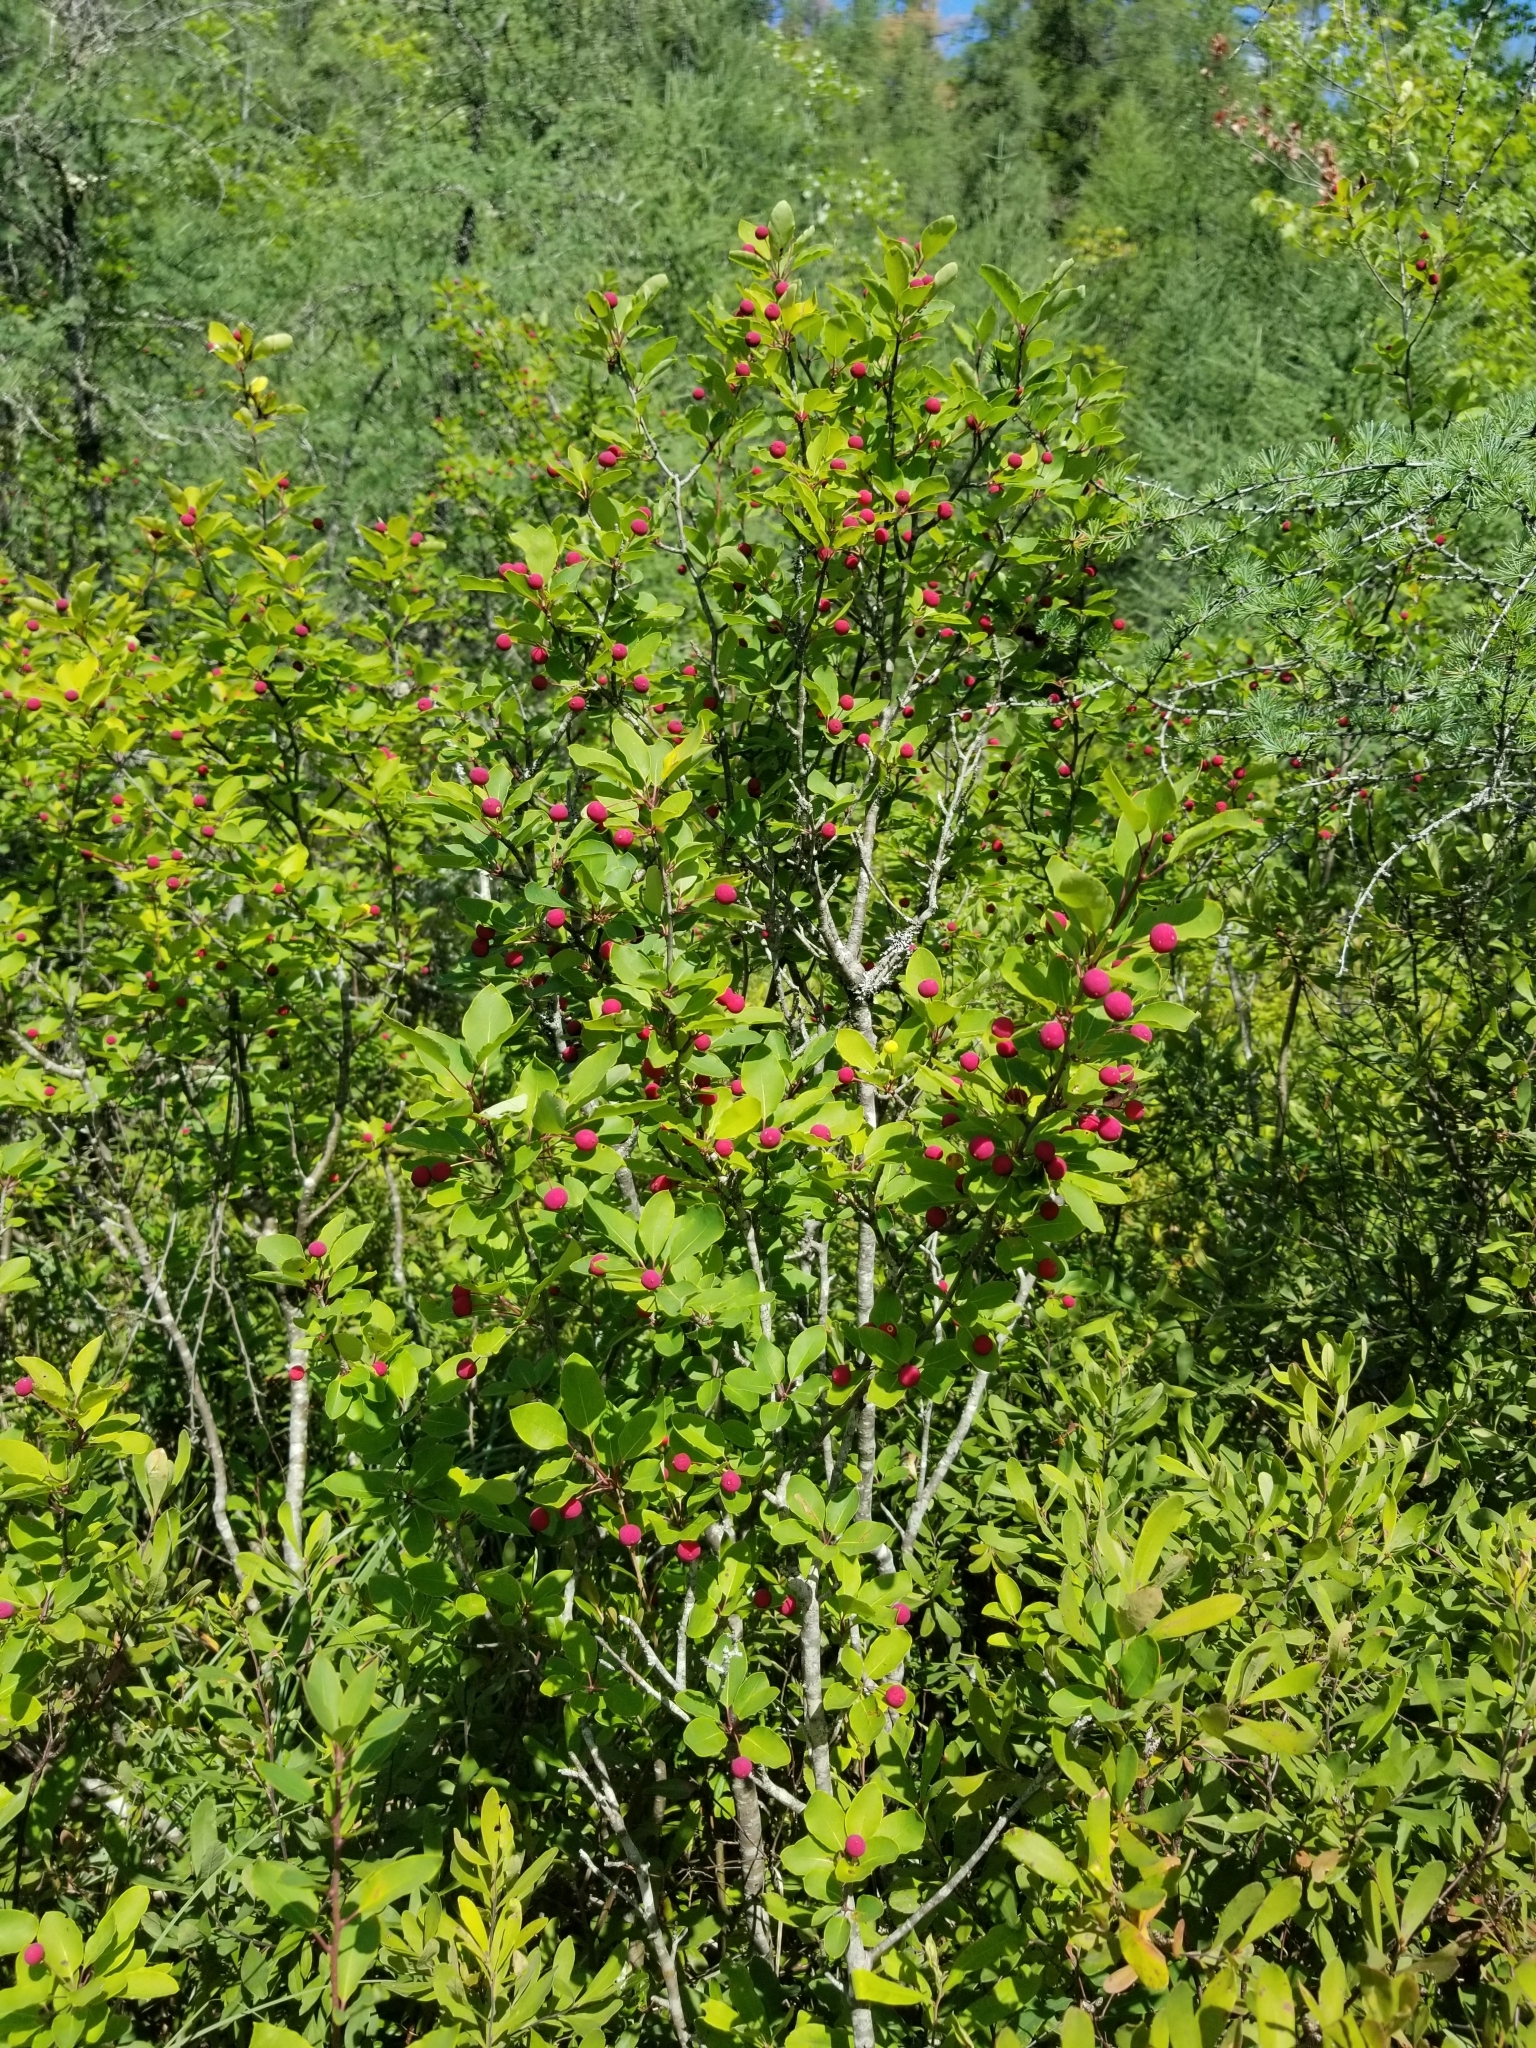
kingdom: Plantae
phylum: Tracheophyta
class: Magnoliopsida
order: Aquifoliales
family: Aquifoliaceae
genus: Ilex
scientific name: Ilex mucronata
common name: Catberry
